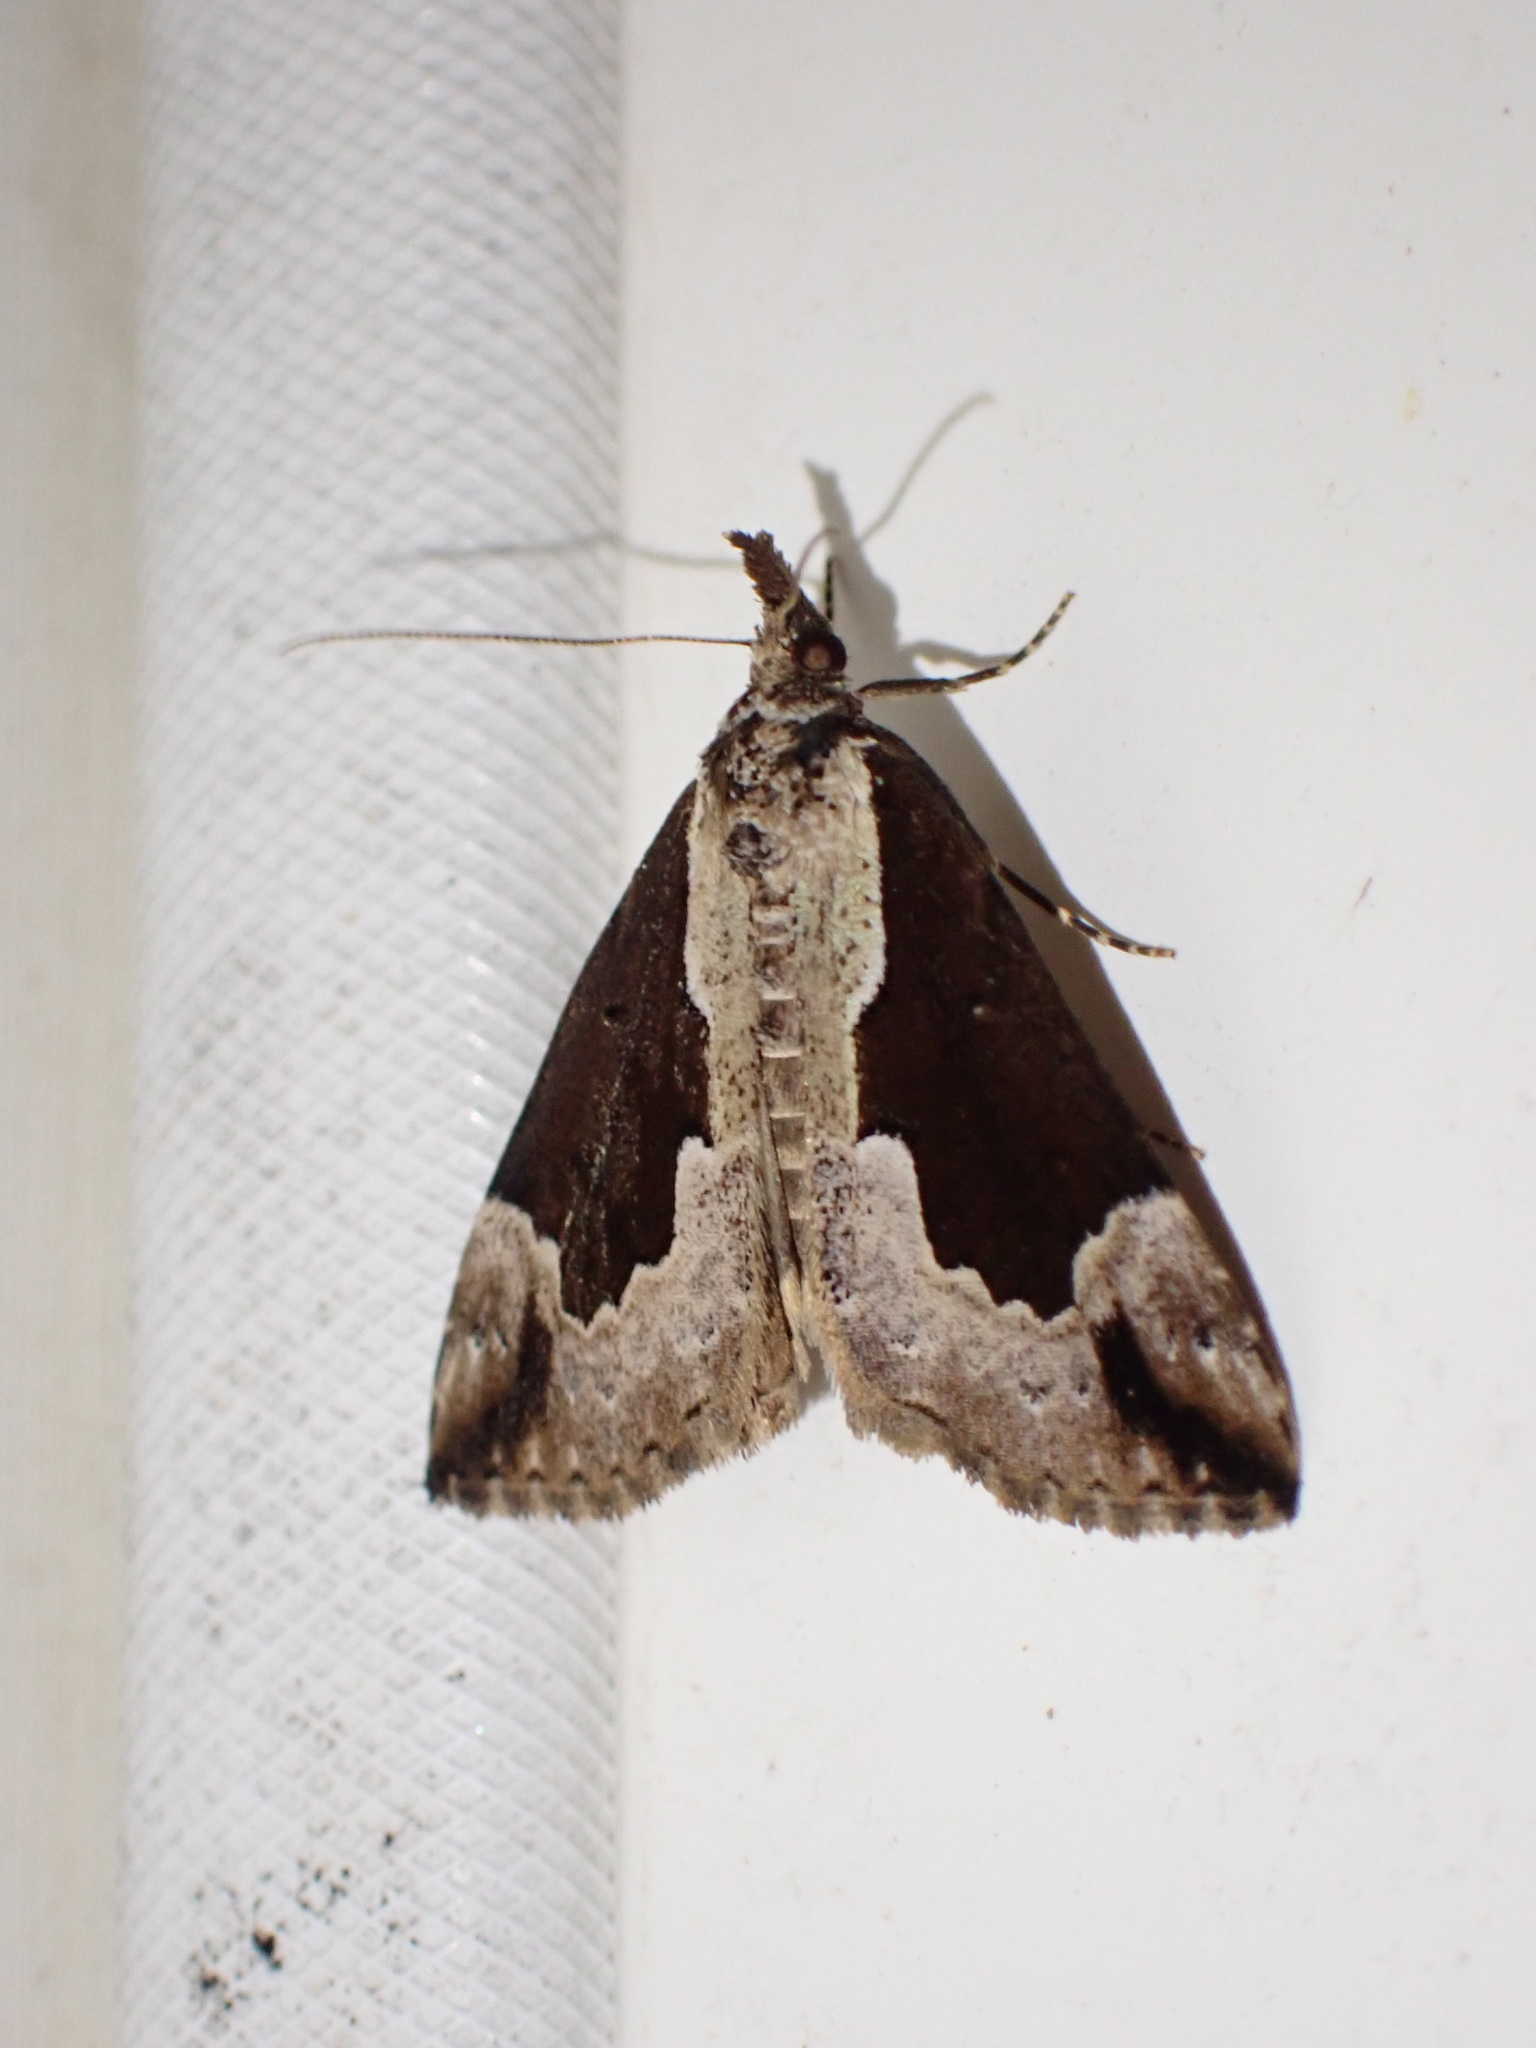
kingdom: Animalia
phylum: Arthropoda
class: Insecta
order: Lepidoptera
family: Erebidae
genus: Hypena
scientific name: Hypena baltimoralis
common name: Baltimore snout
